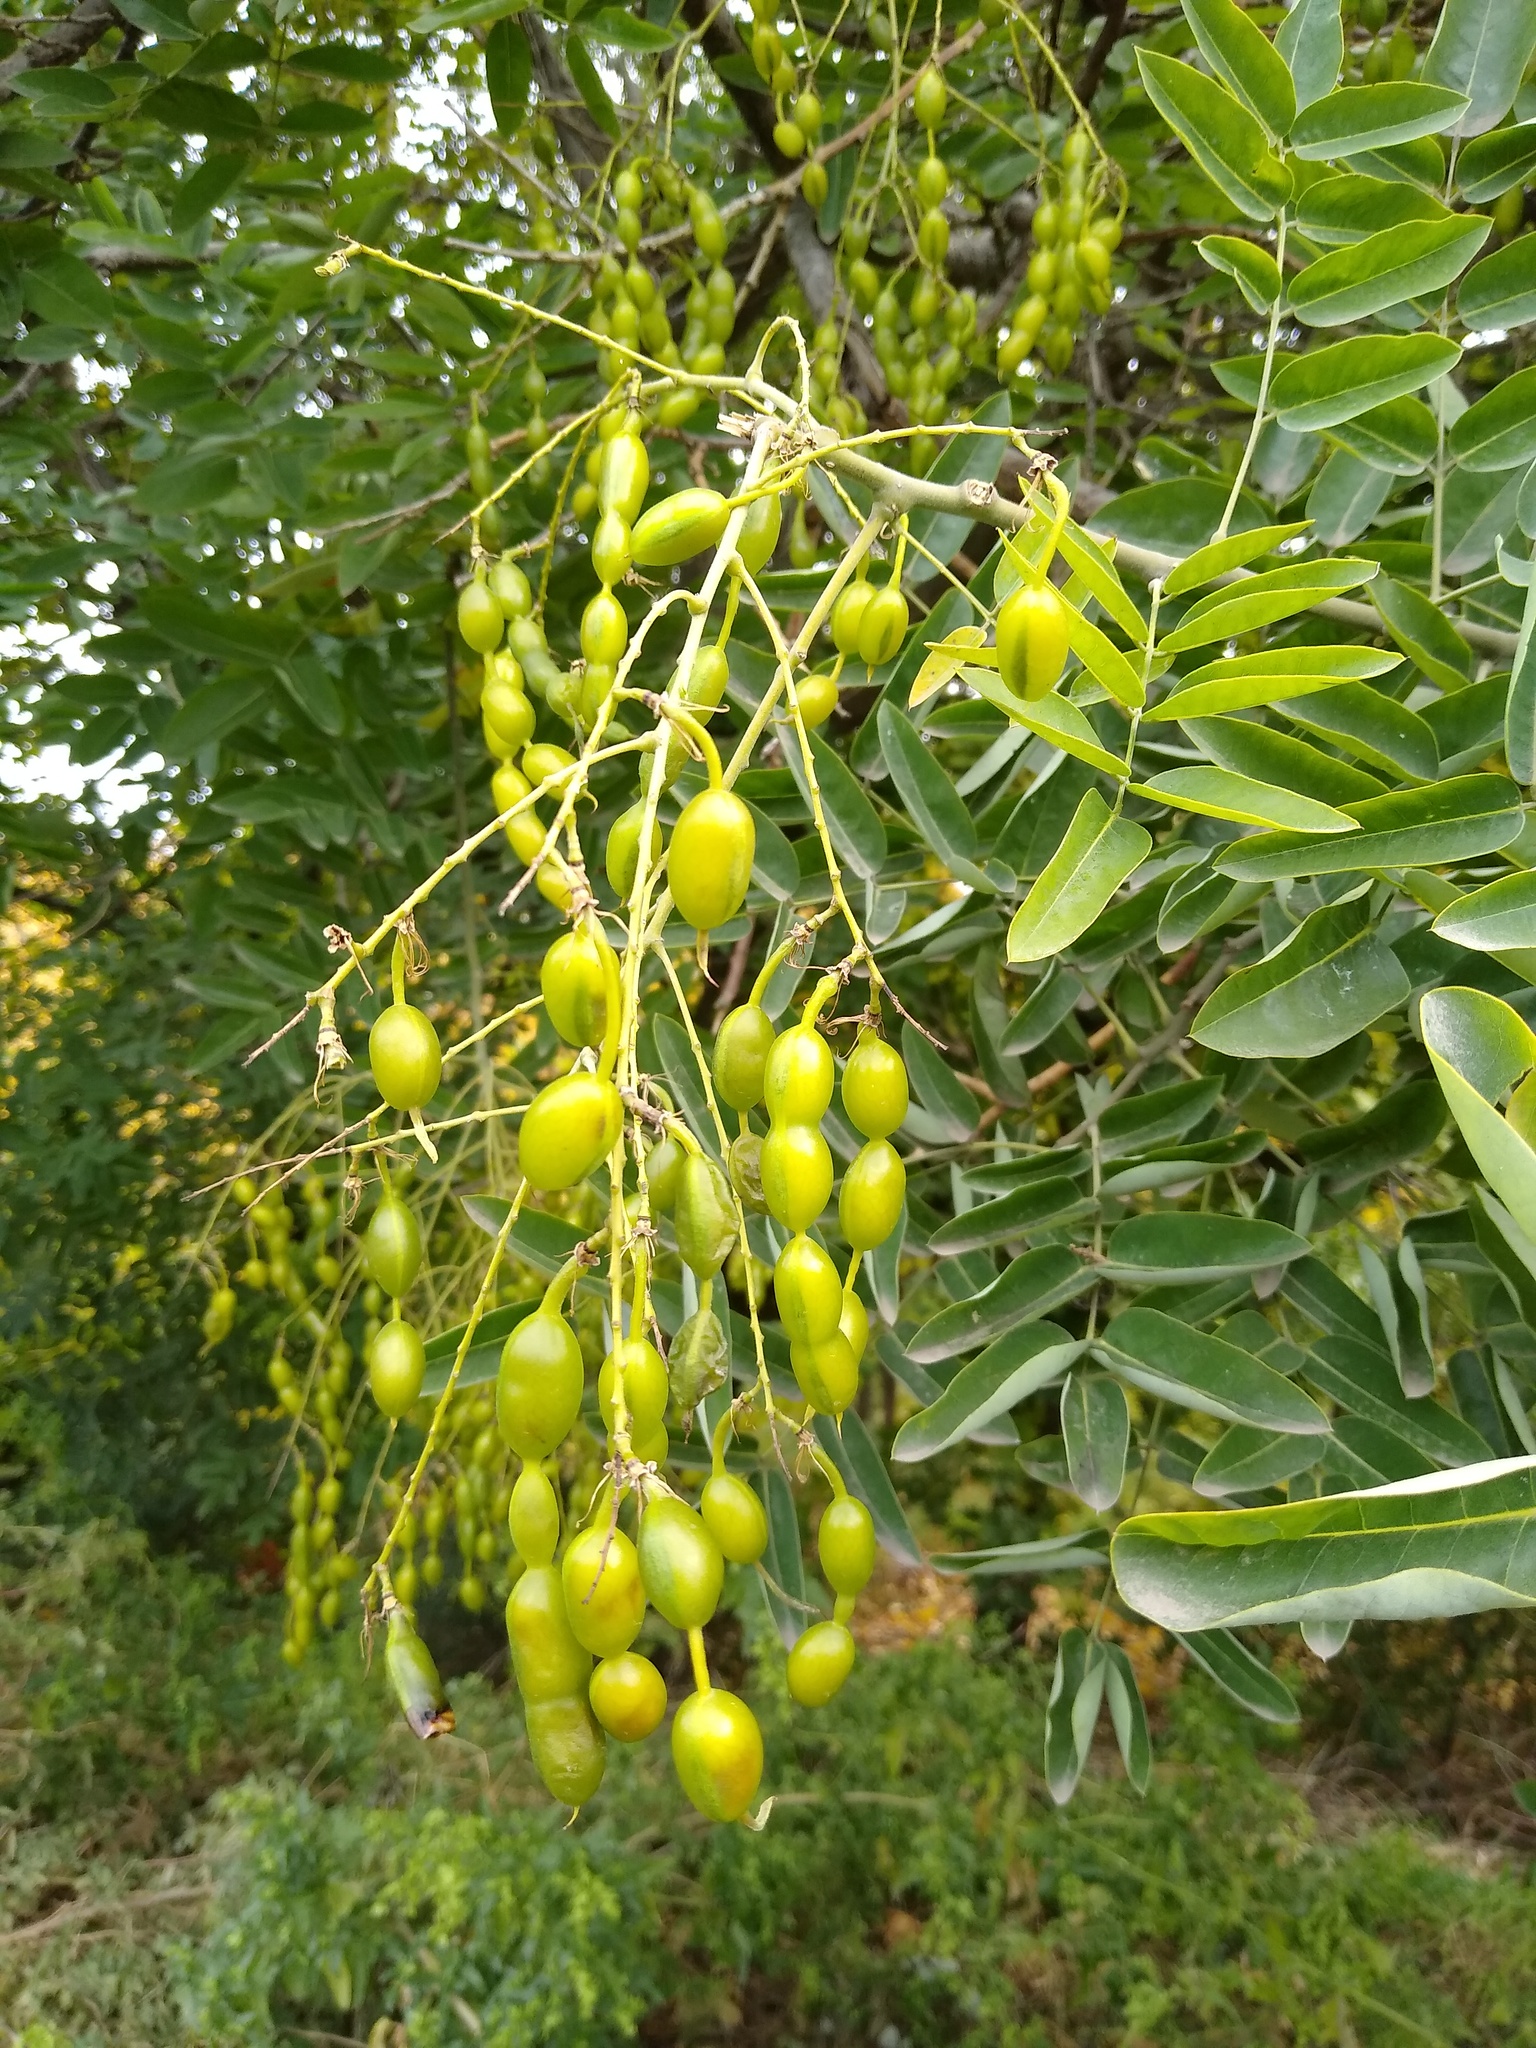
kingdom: Plantae
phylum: Tracheophyta
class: Magnoliopsida
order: Fabales
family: Fabaceae
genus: Styphnolobium
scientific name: Styphnolobium japonicum
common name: Chinese scholartree
